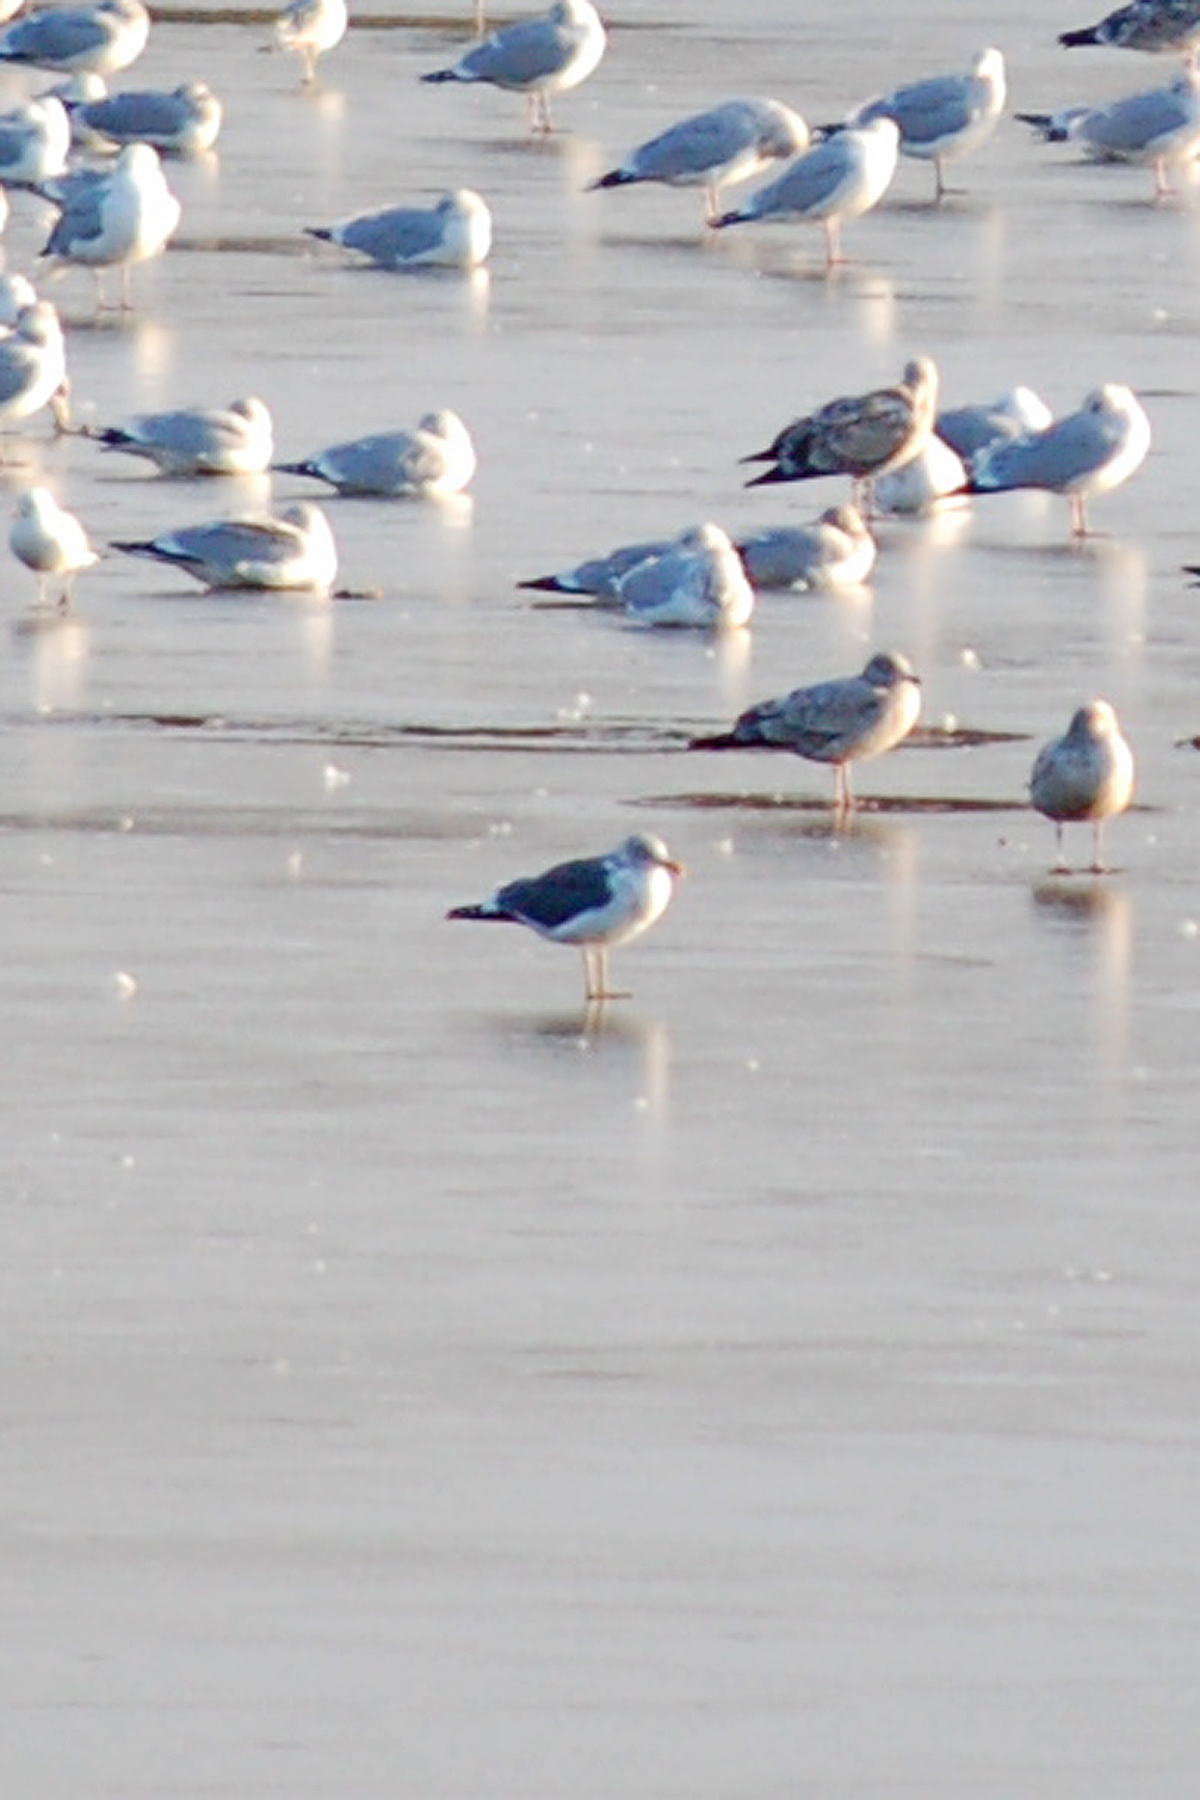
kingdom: Animalia
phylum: Chordata
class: Aves
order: Charadriiformes
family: Laridae
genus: Larus
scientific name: Larus fuscus
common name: Lesser black-backed gull
